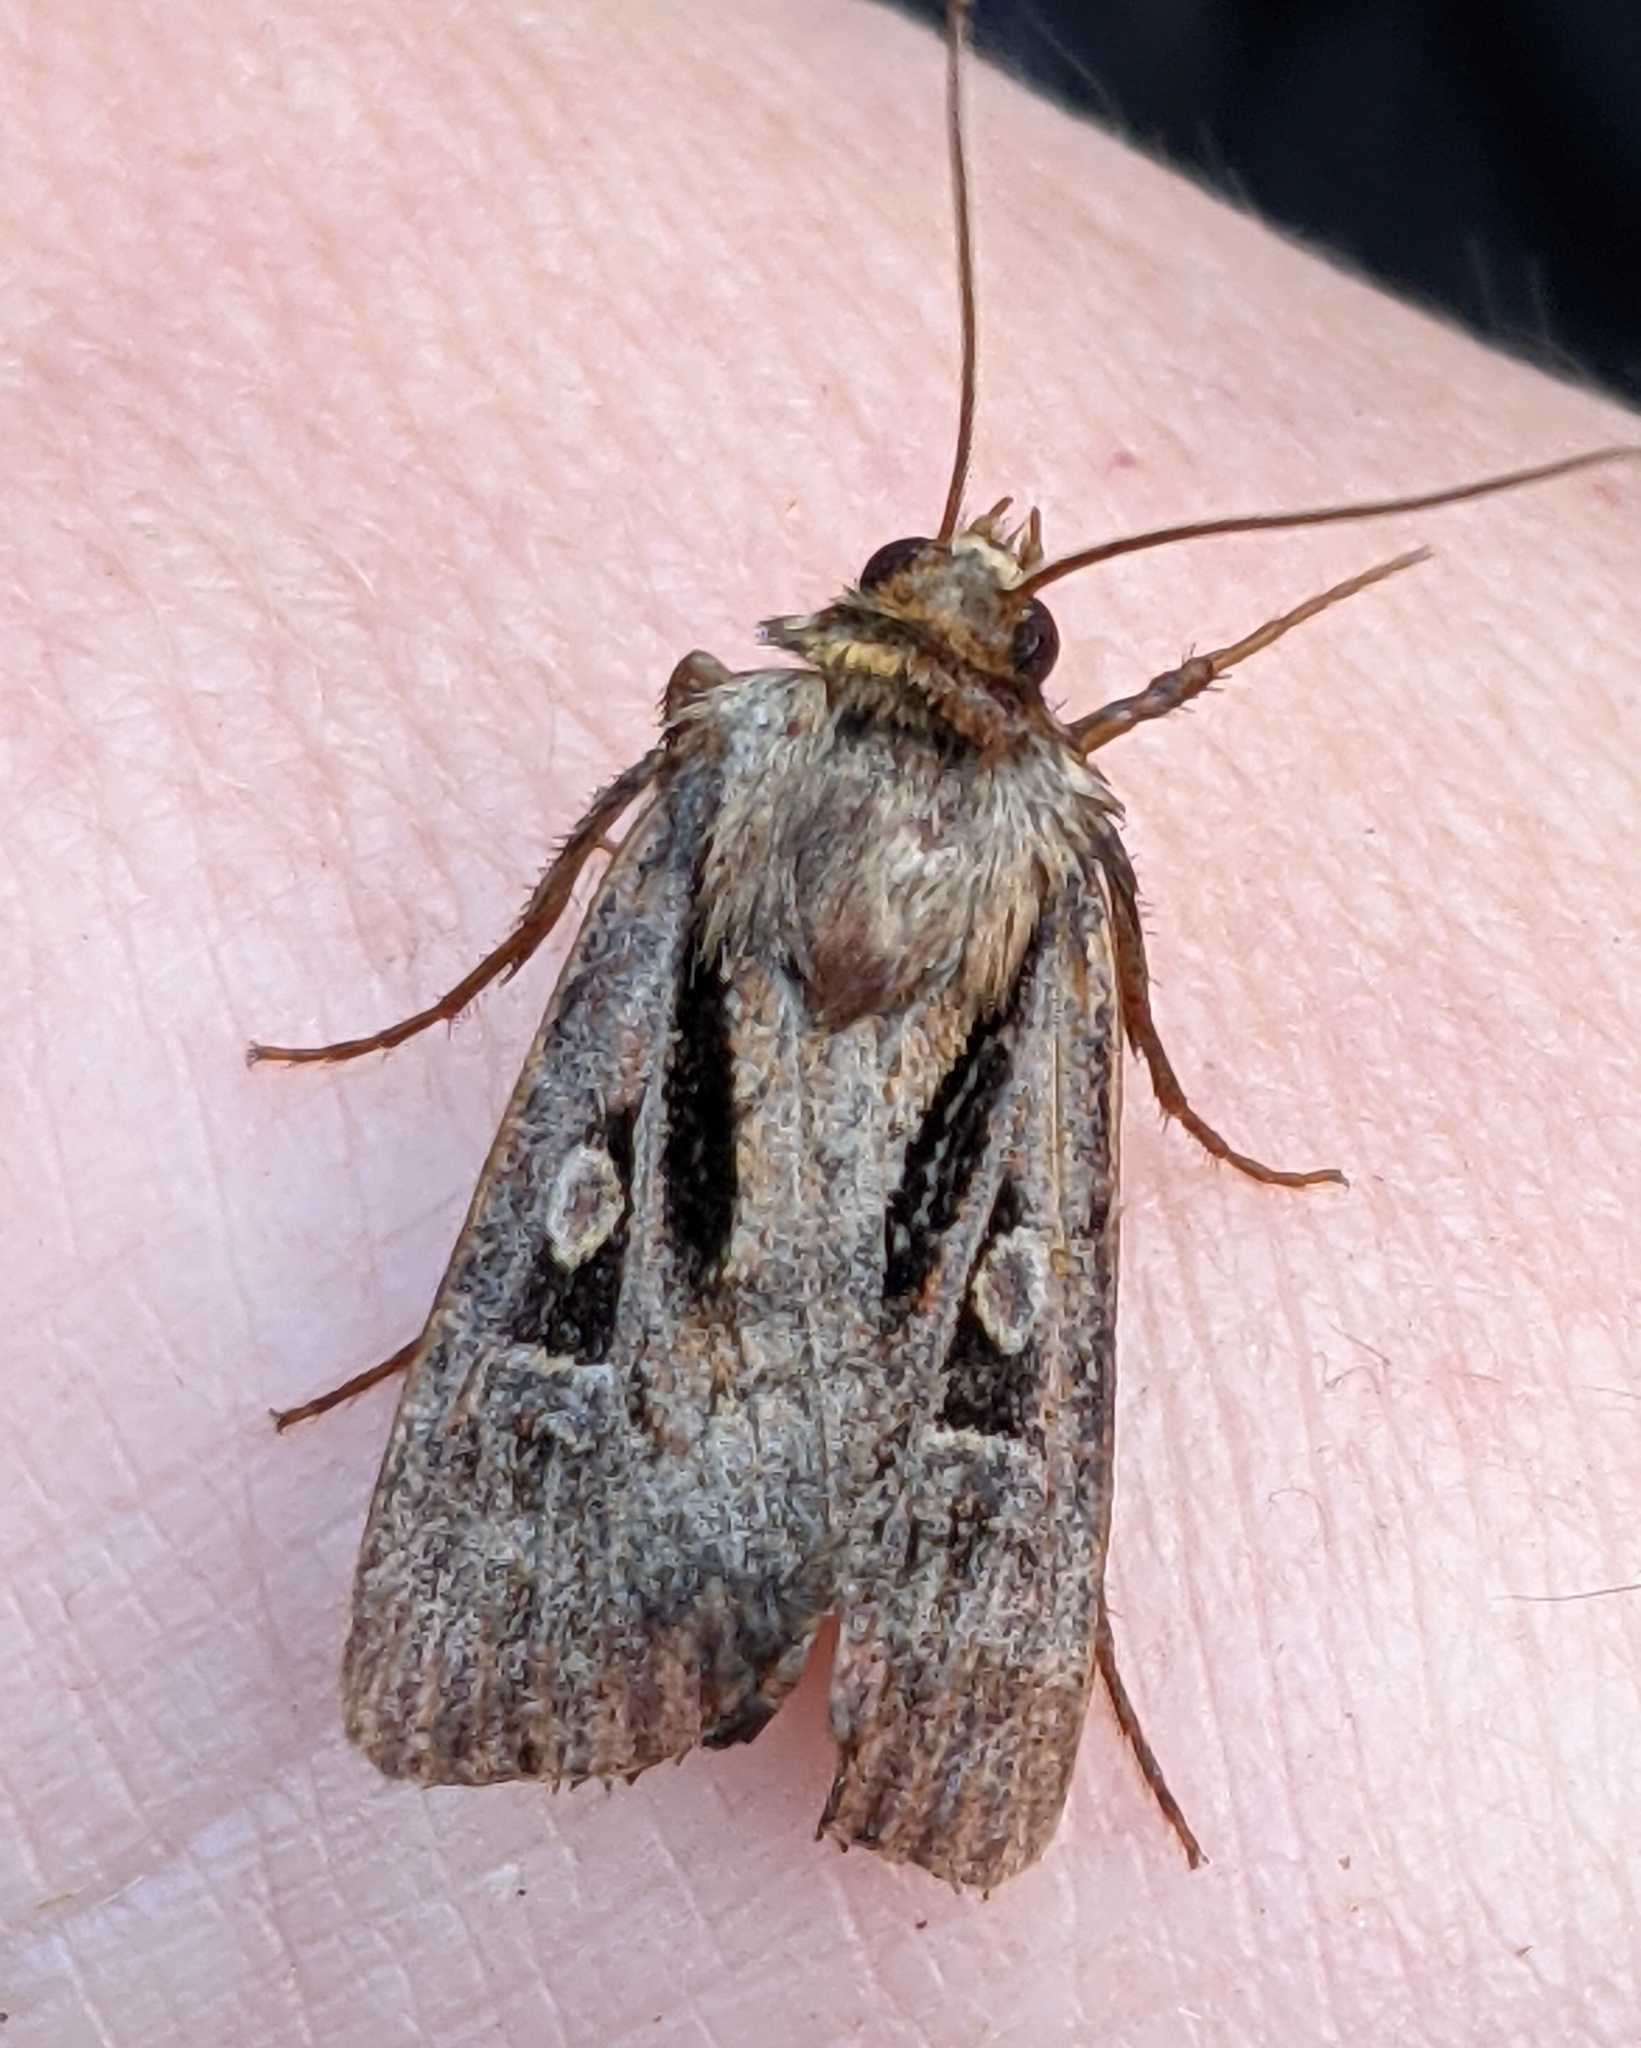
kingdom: Animalia
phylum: Arthropoda
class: Insecta
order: Lepidoptera
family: Noctuidae
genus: Agrotis
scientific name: Agrotis vancouverensis
